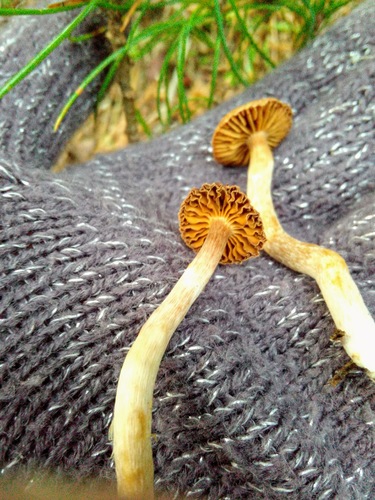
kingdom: Fungi
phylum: Basidiomycota
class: Agaricomycetes
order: Agaricales
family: Cortinariaceae
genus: Cortinarius
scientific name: Cortinarius
